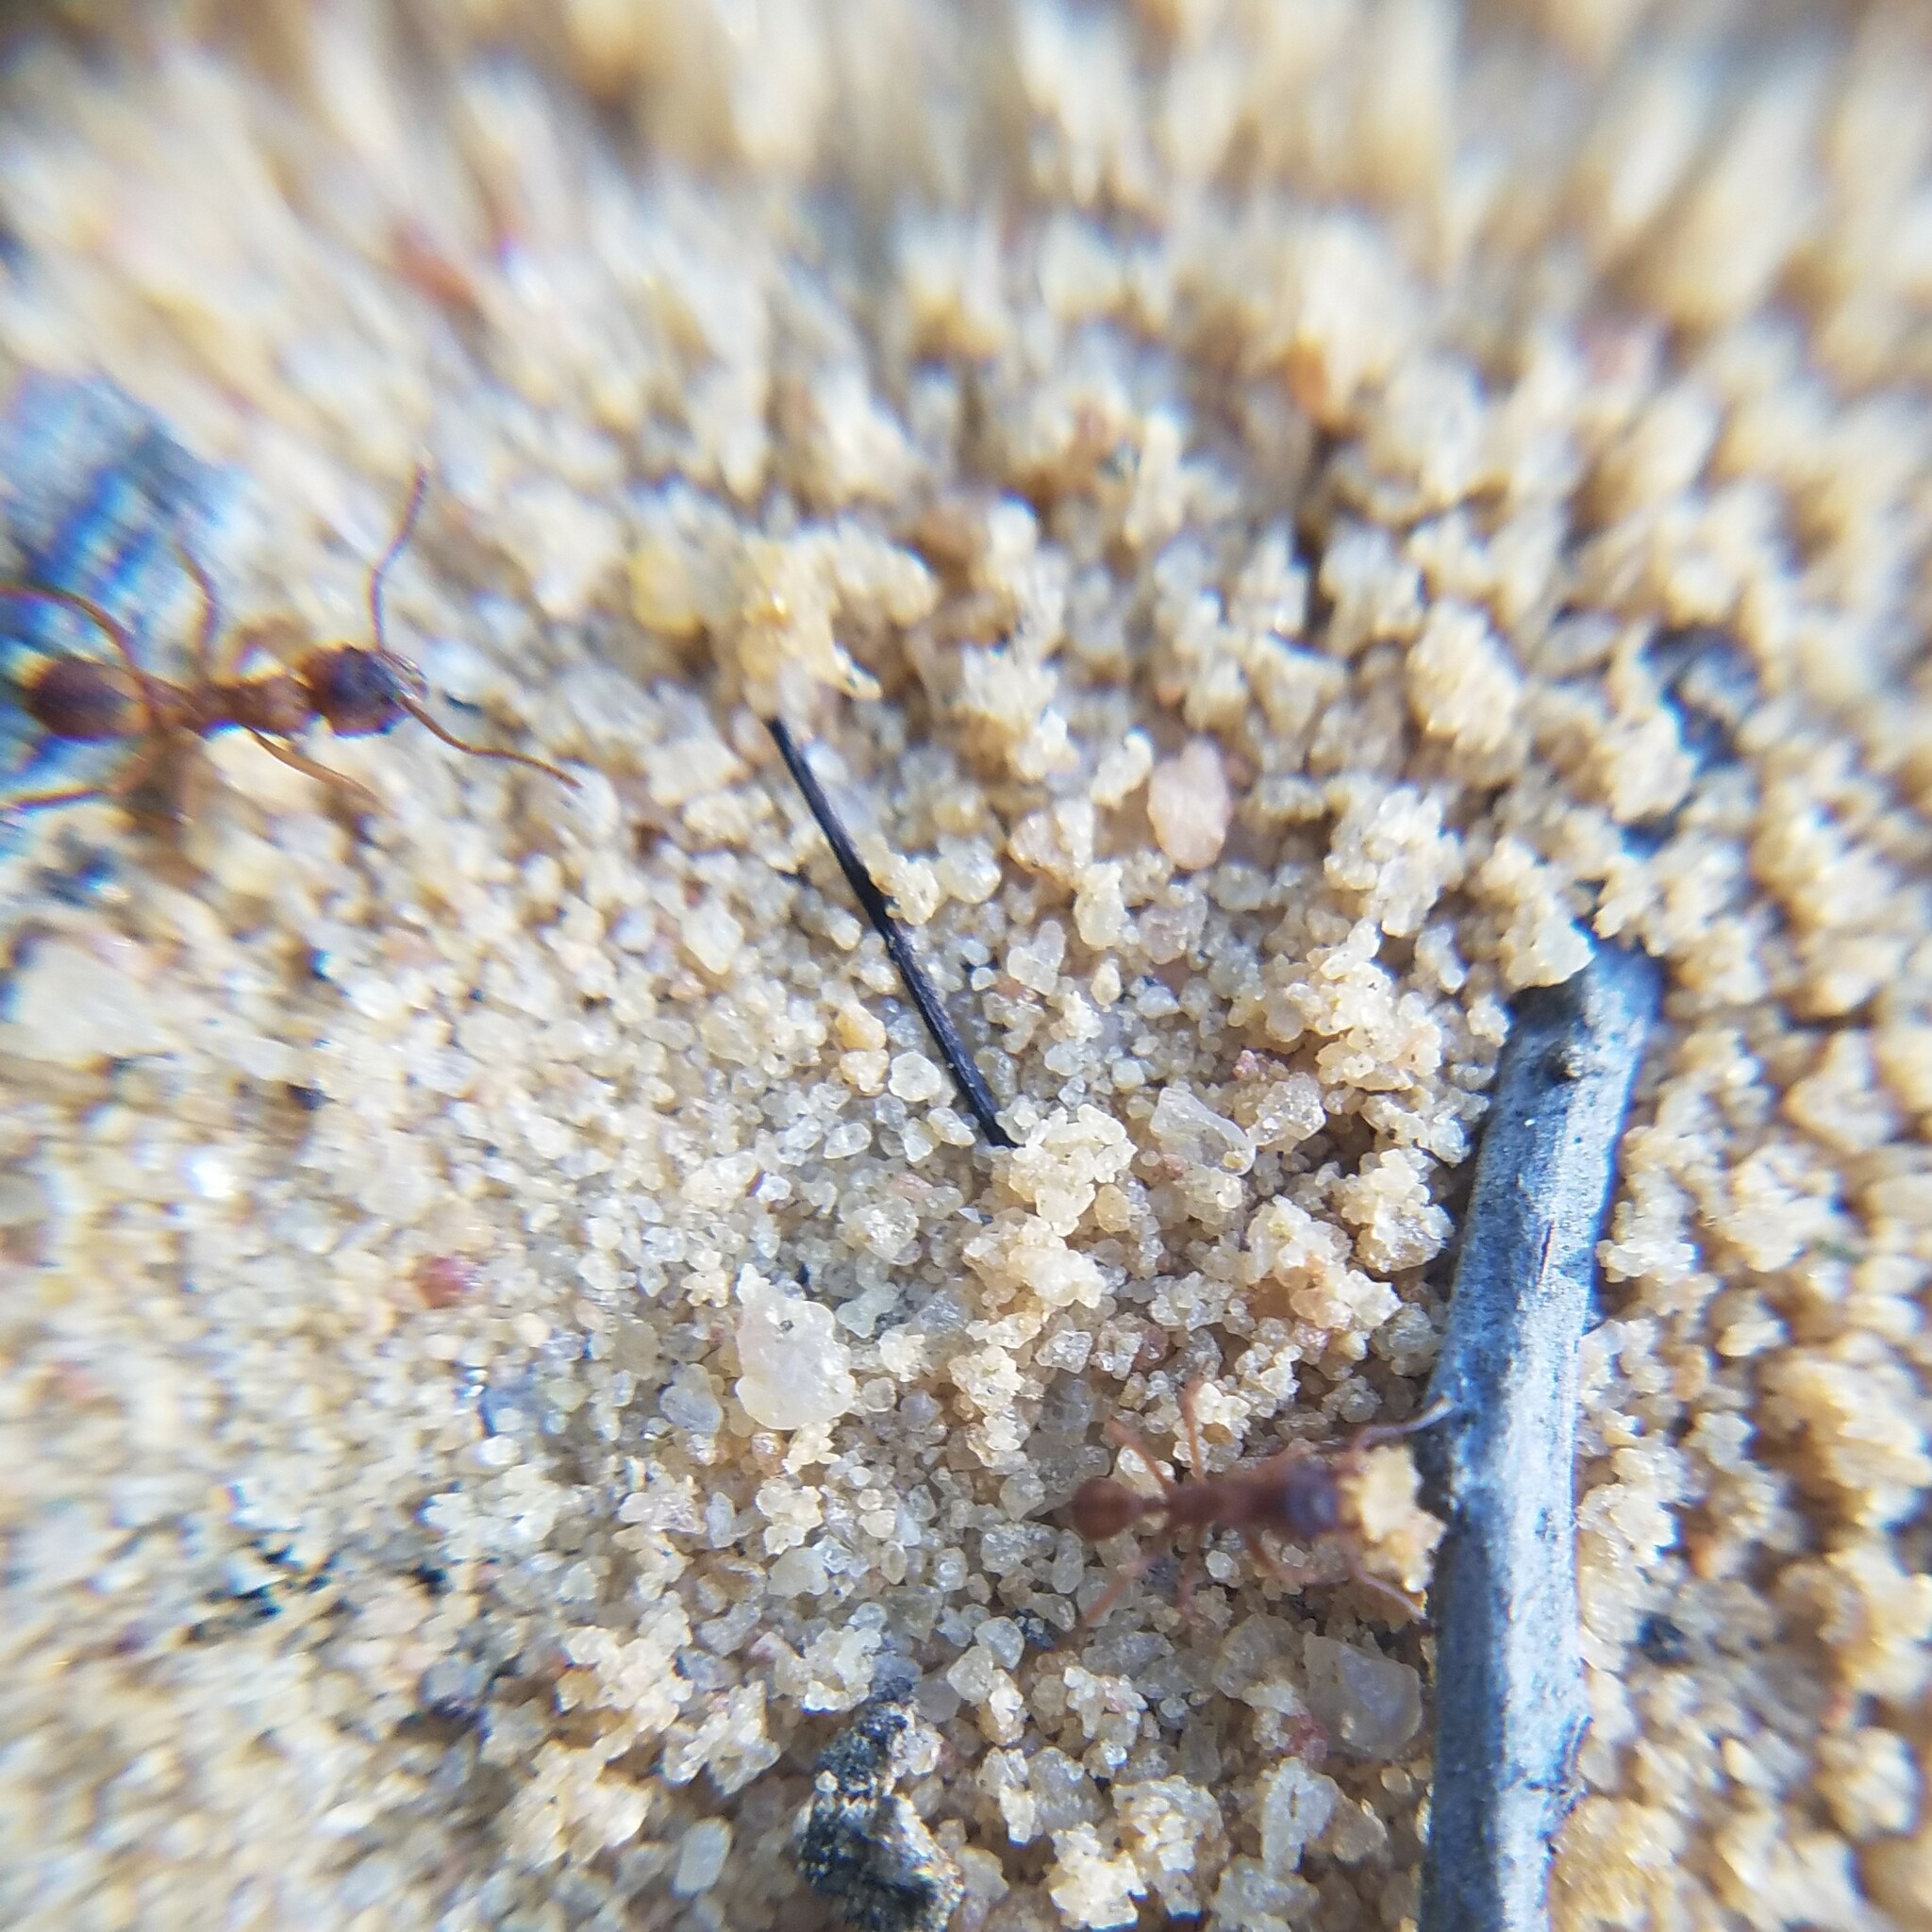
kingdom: Animalia
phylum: Arthropoda
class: Insecta
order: Hymenoptera
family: Formicidae
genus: Trachymyrmex
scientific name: Trachymyrmex septentrionalis
